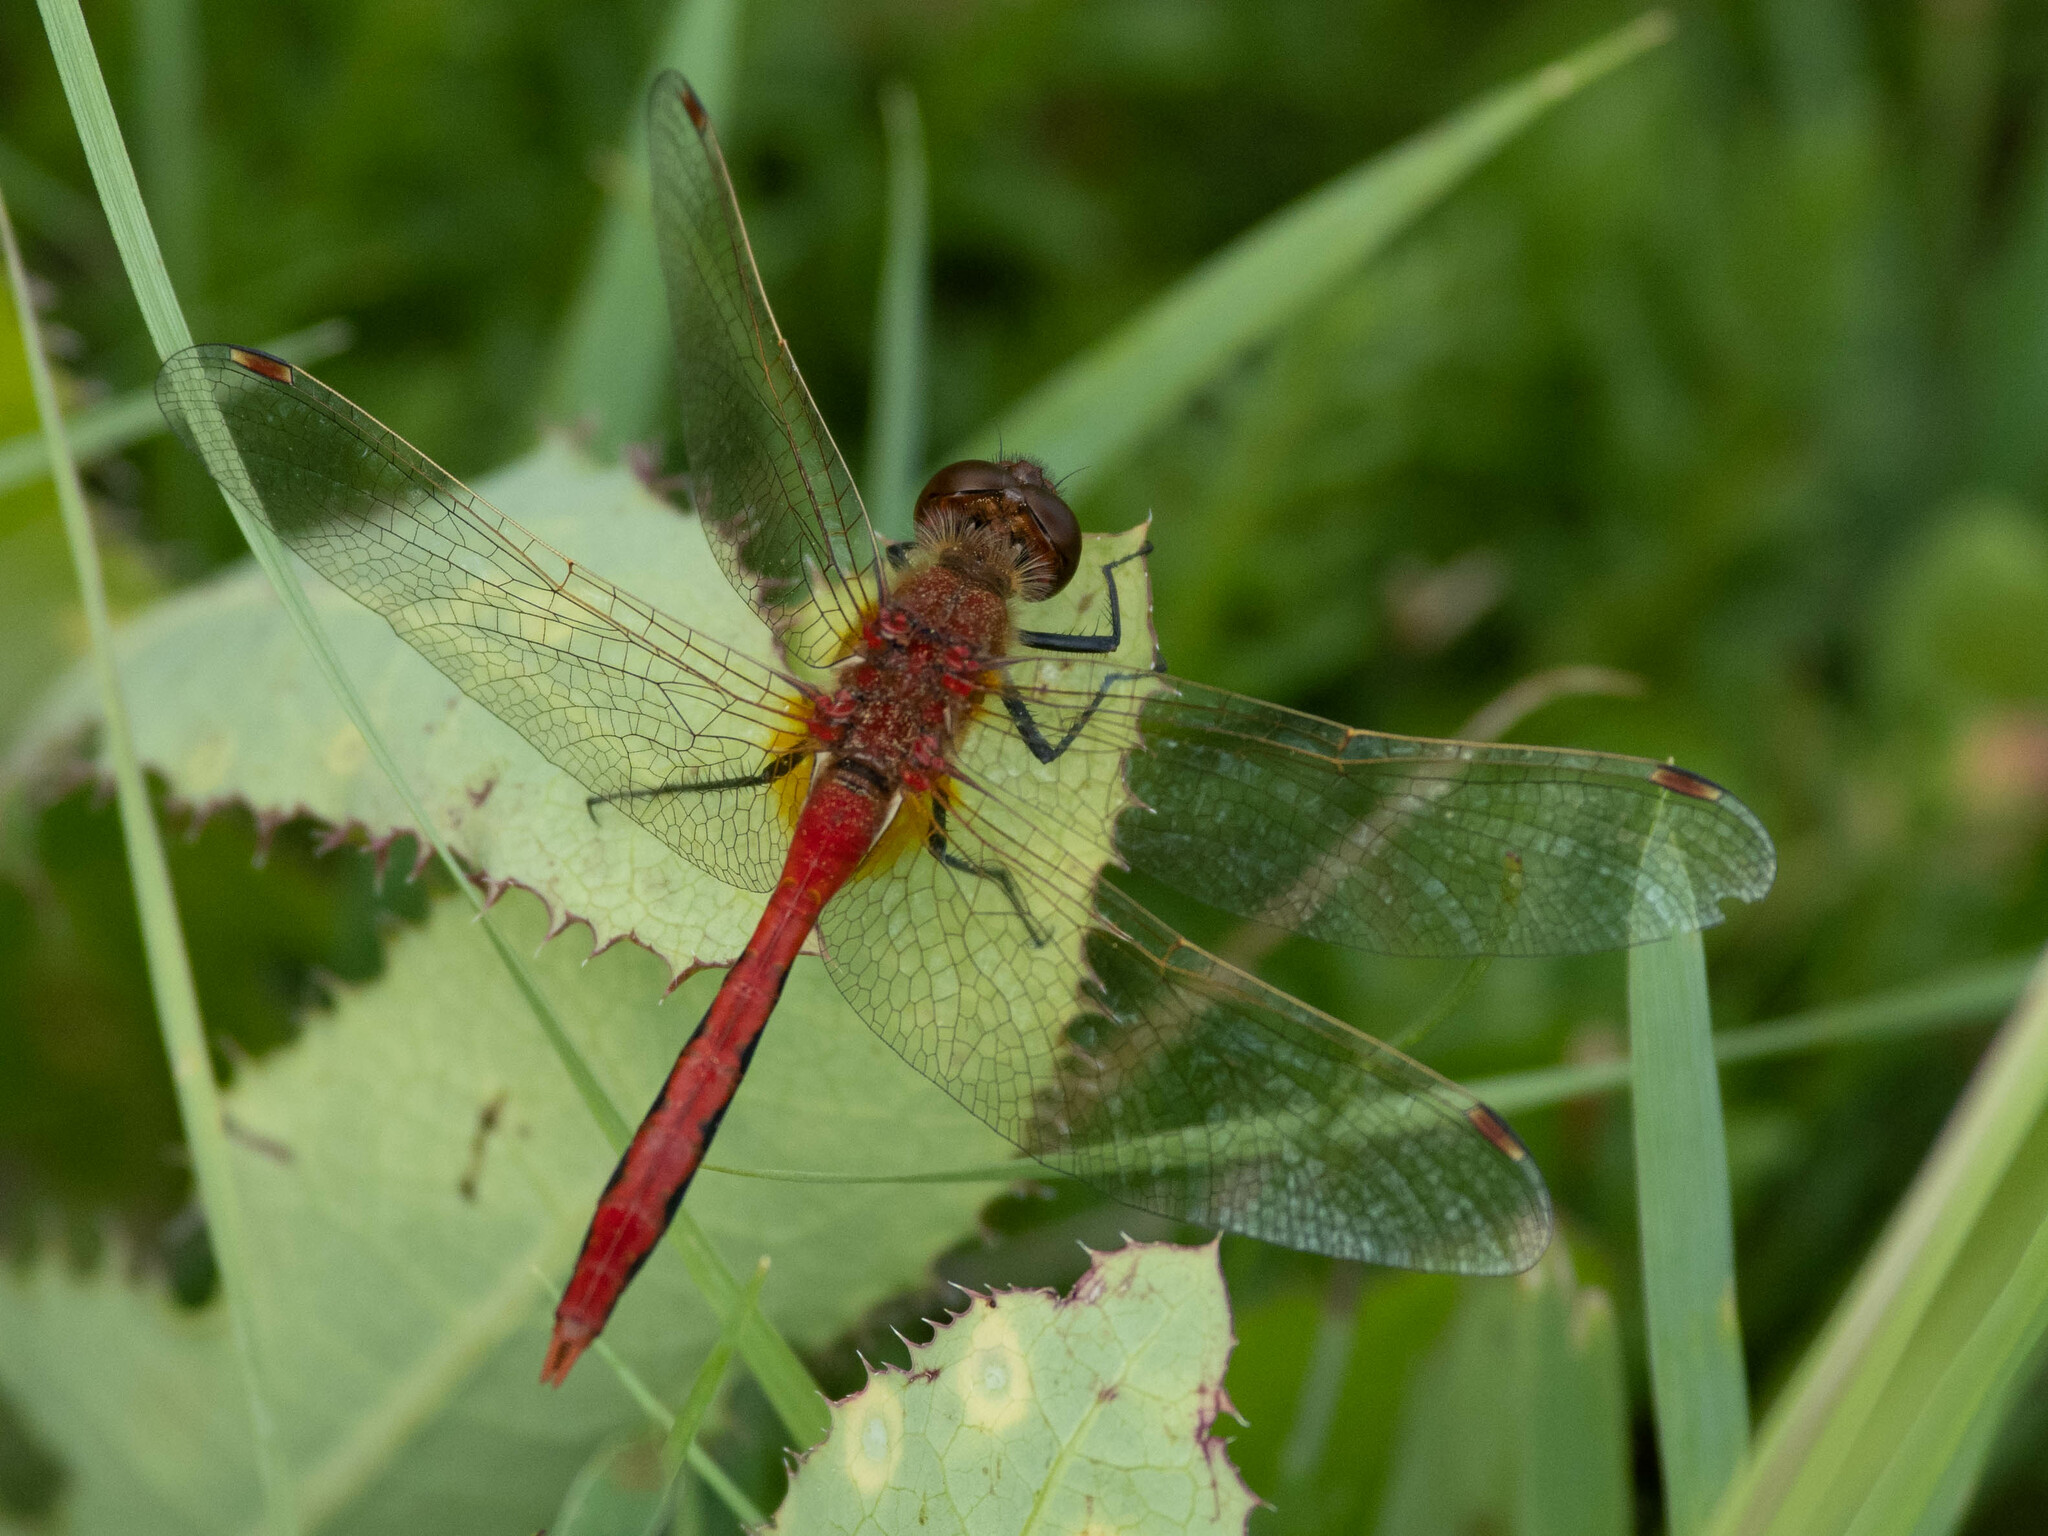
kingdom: Animalia
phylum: Arthropoda
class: Insecta
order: Odonata
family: Libellulidae
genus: Sympetrum
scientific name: Sympetrum internum
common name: Cherry-faced meadowhawk
